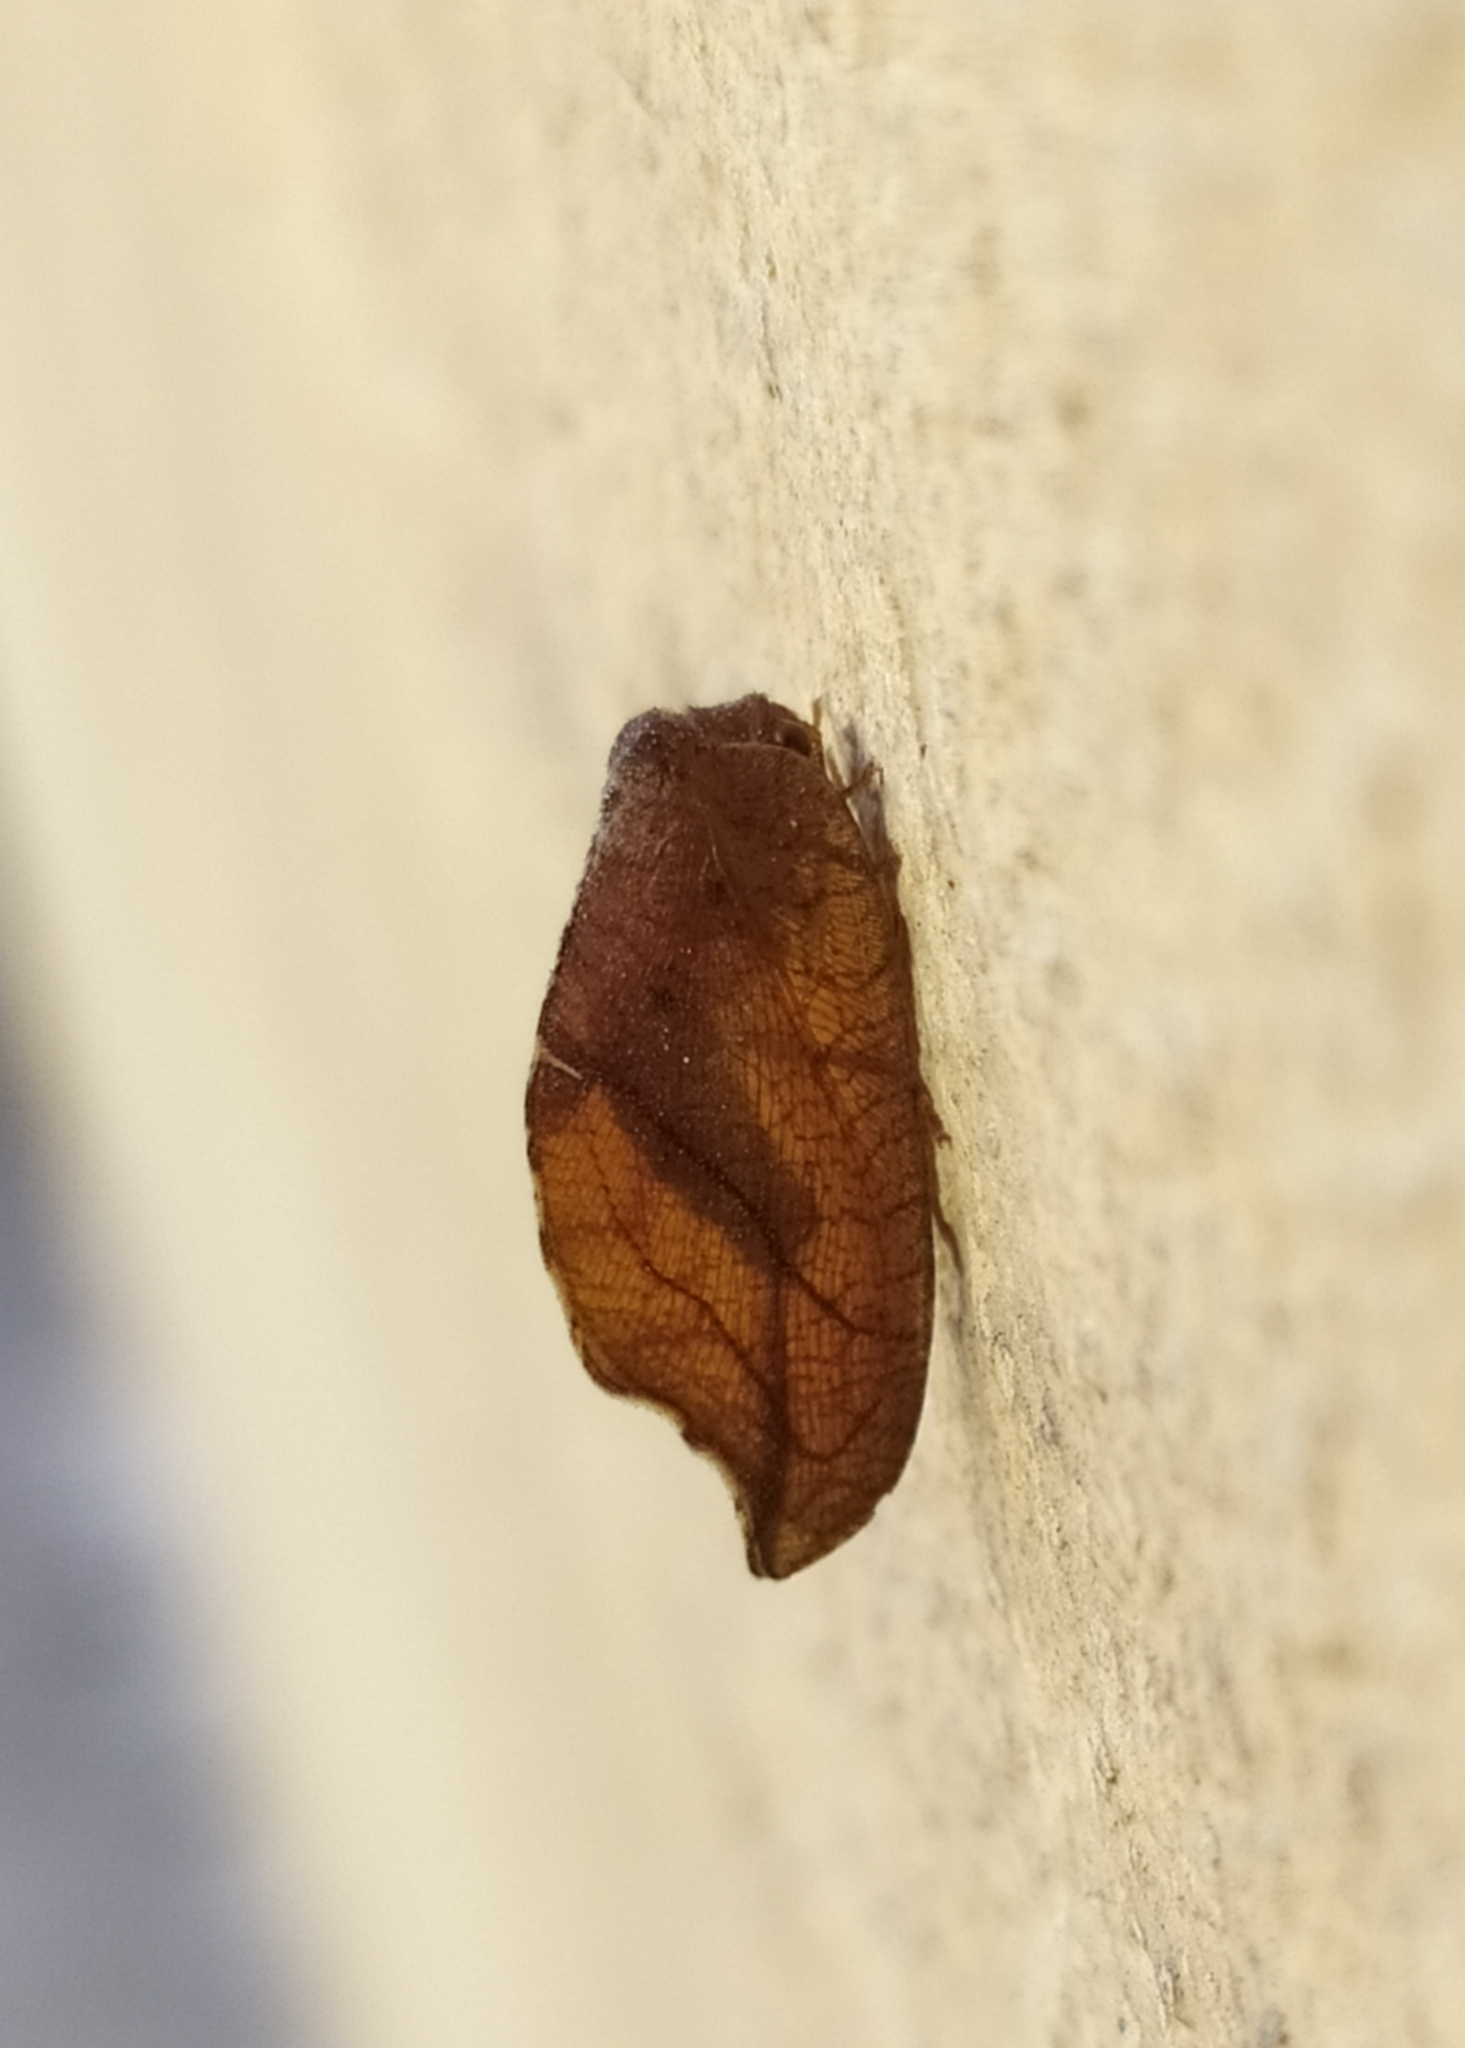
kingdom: Animalia
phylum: Arthropoda
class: Insecta
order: Neuroptera
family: Hemerobiidae
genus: Drepanepteryx
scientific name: Drepanepteryx phalaenoides
